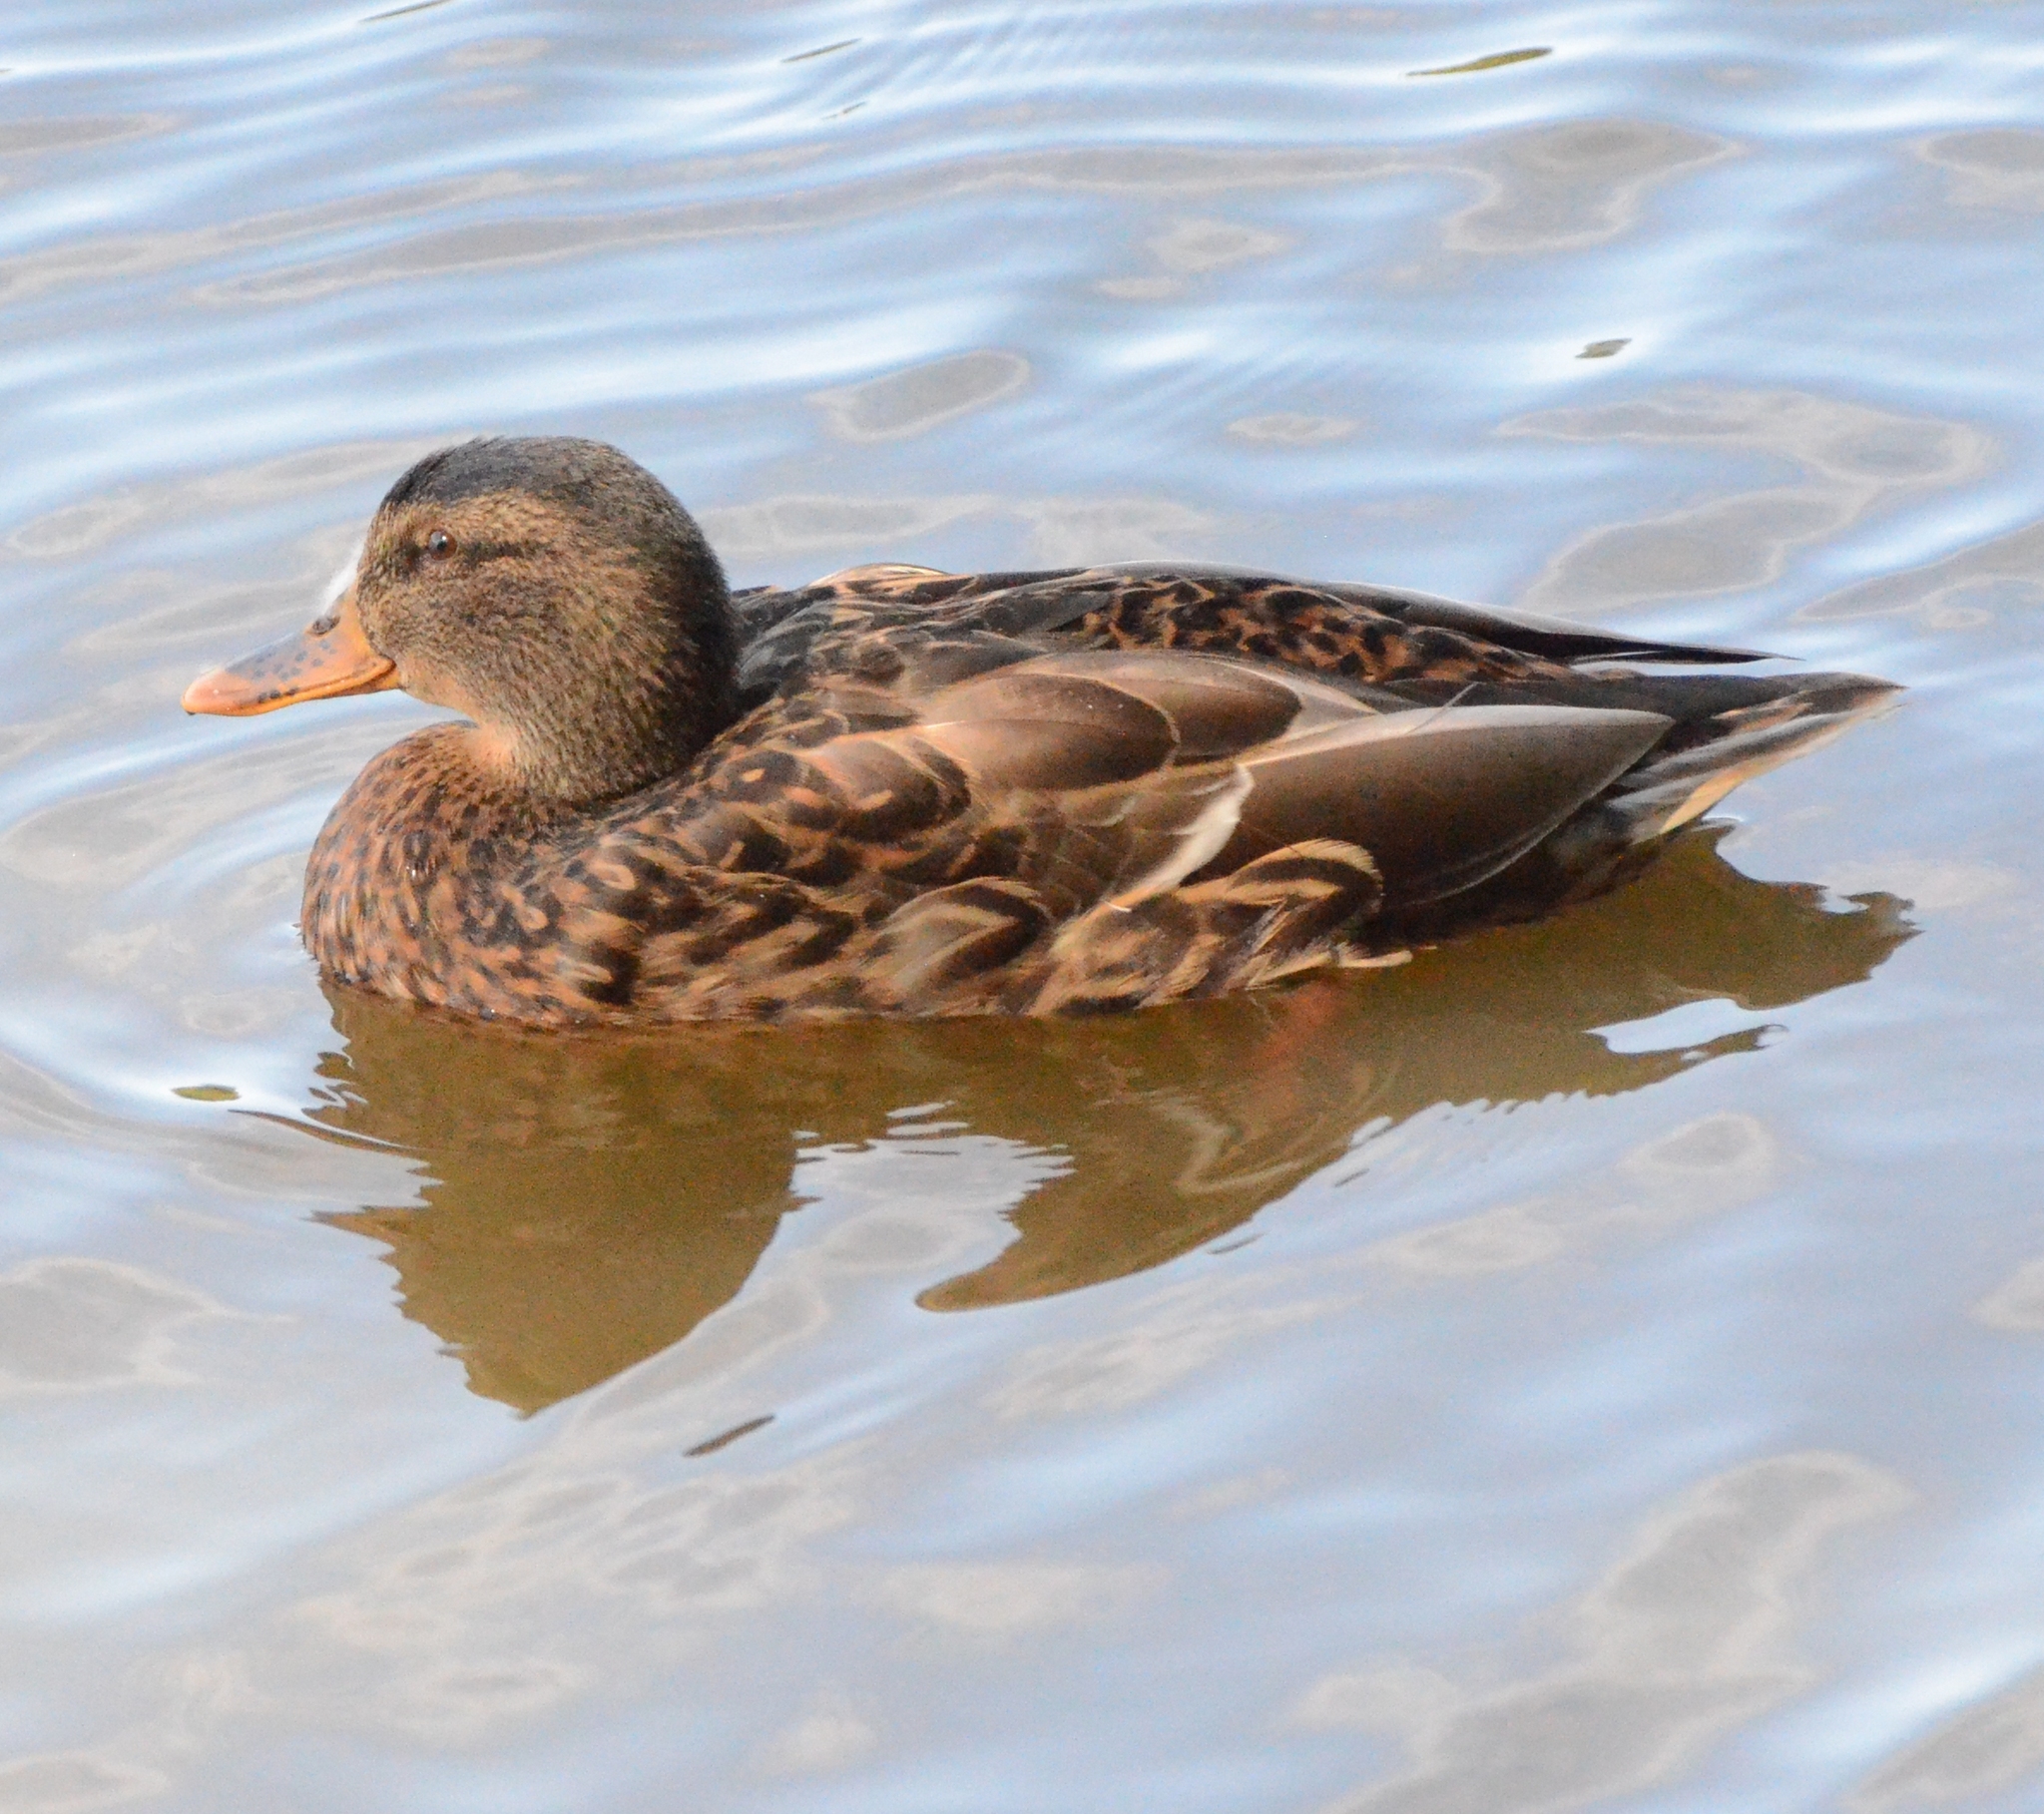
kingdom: Animalia
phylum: Chordata
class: Aves
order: Anseriformes
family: Anatidae
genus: Anas
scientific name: Anas platyrhynchos
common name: Mallard
